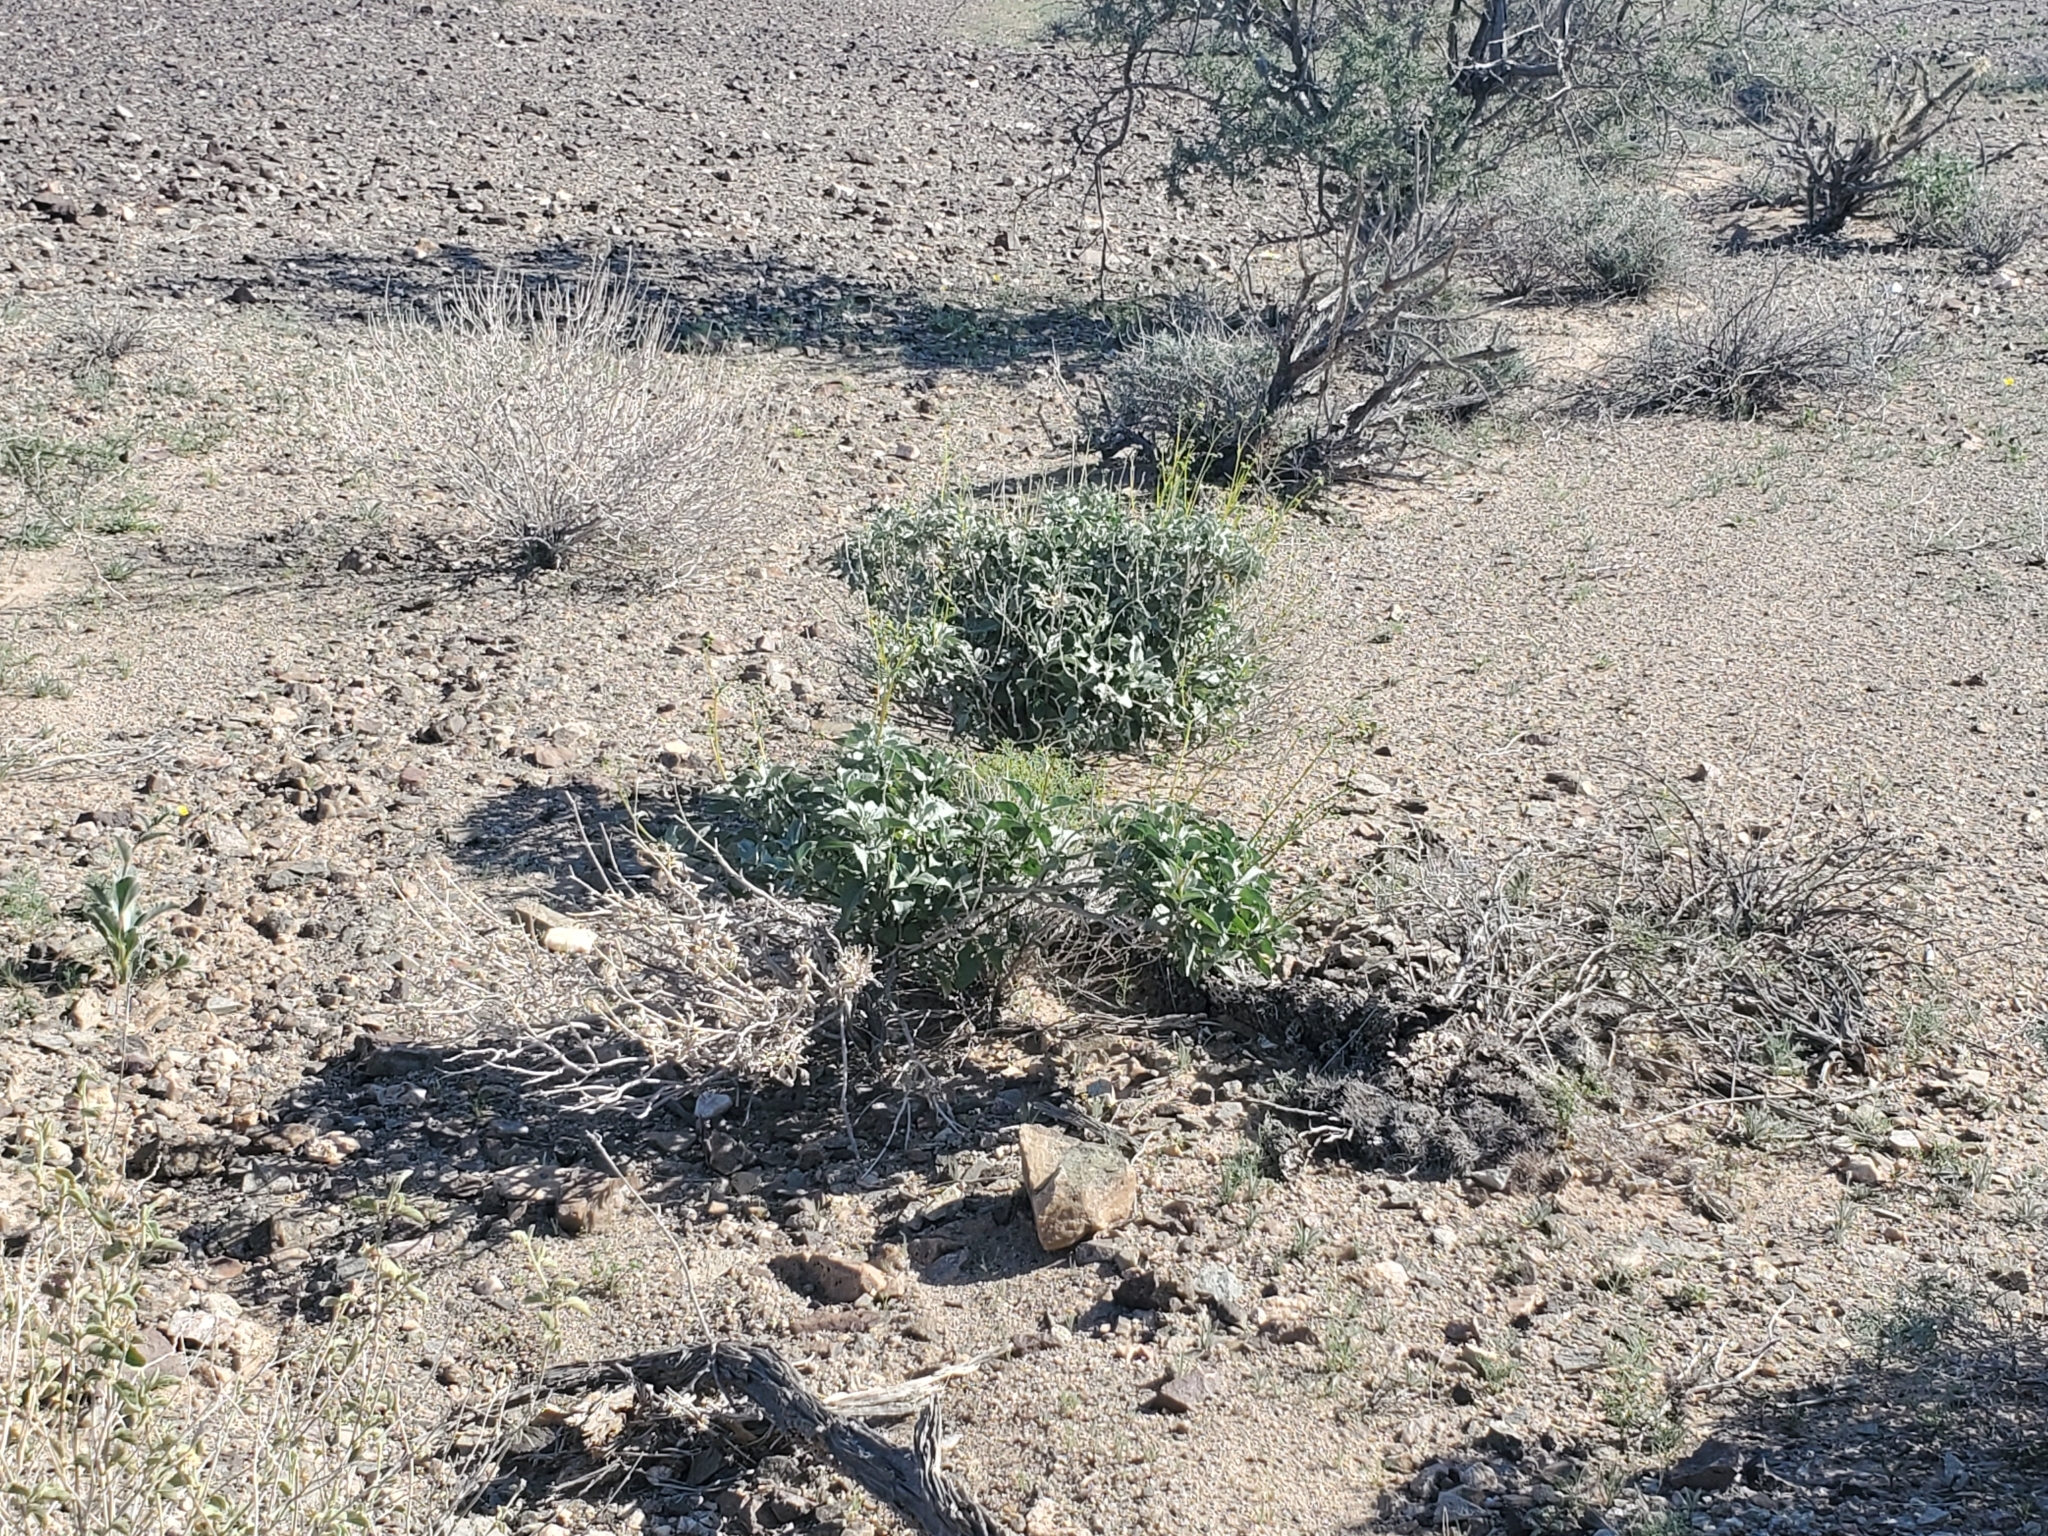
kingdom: Plantae
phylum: Tracheophyta
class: Magnoliopsida
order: Asterales
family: Asteraceae
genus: Encelia
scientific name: Encelia farinosa
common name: Brittlebush
